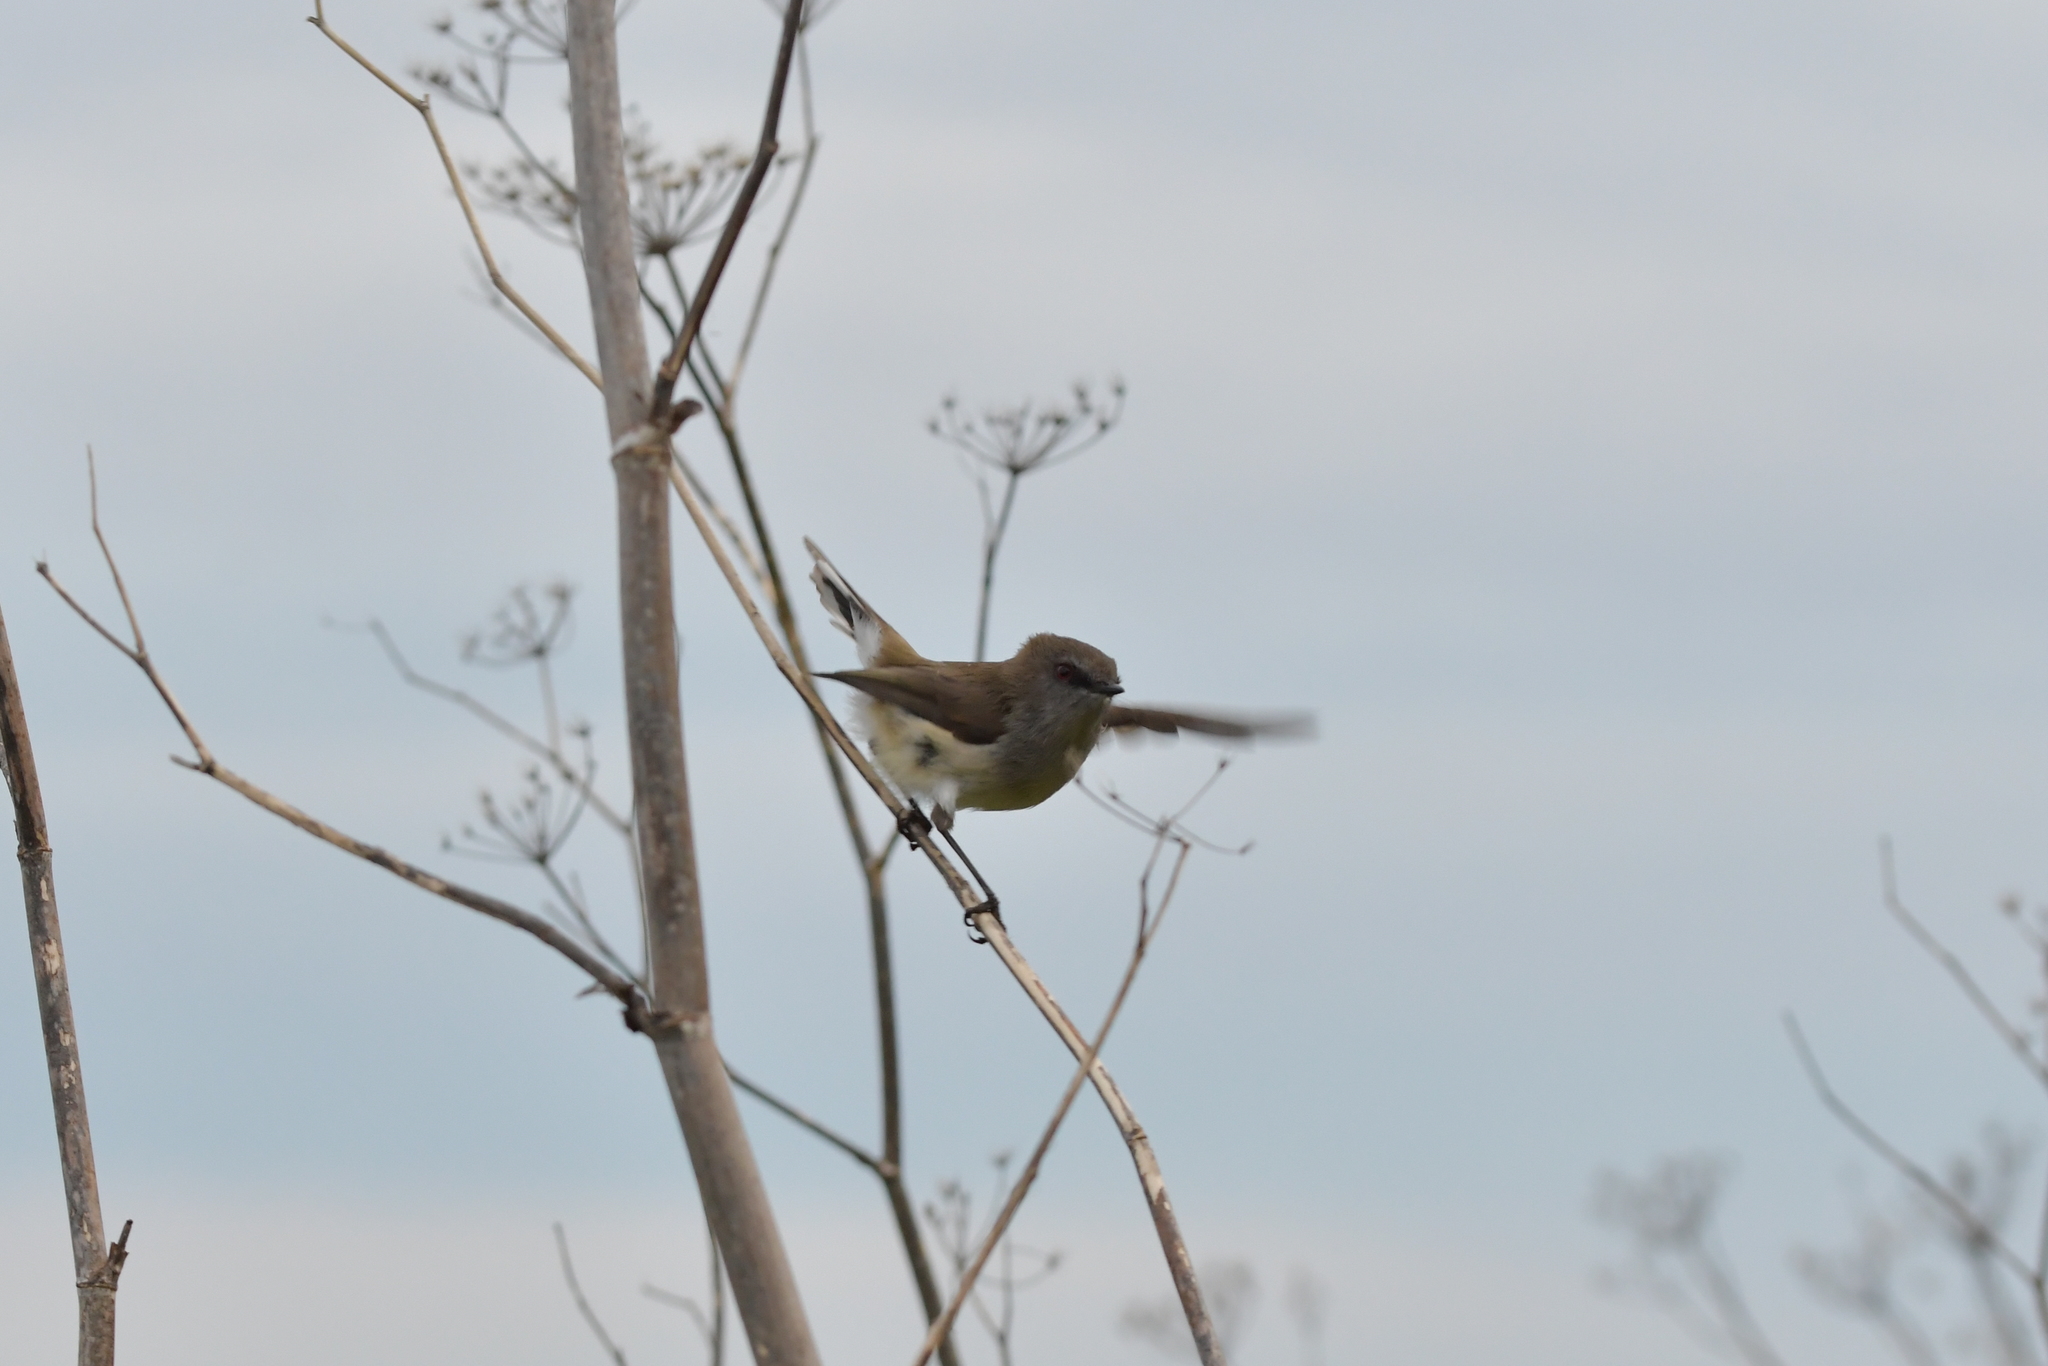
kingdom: Animalia
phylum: Chordata
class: Aves
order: Passeriformes
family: Acanthizidae
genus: Gerygone
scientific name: Gerygone igata
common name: Grey gerygone
